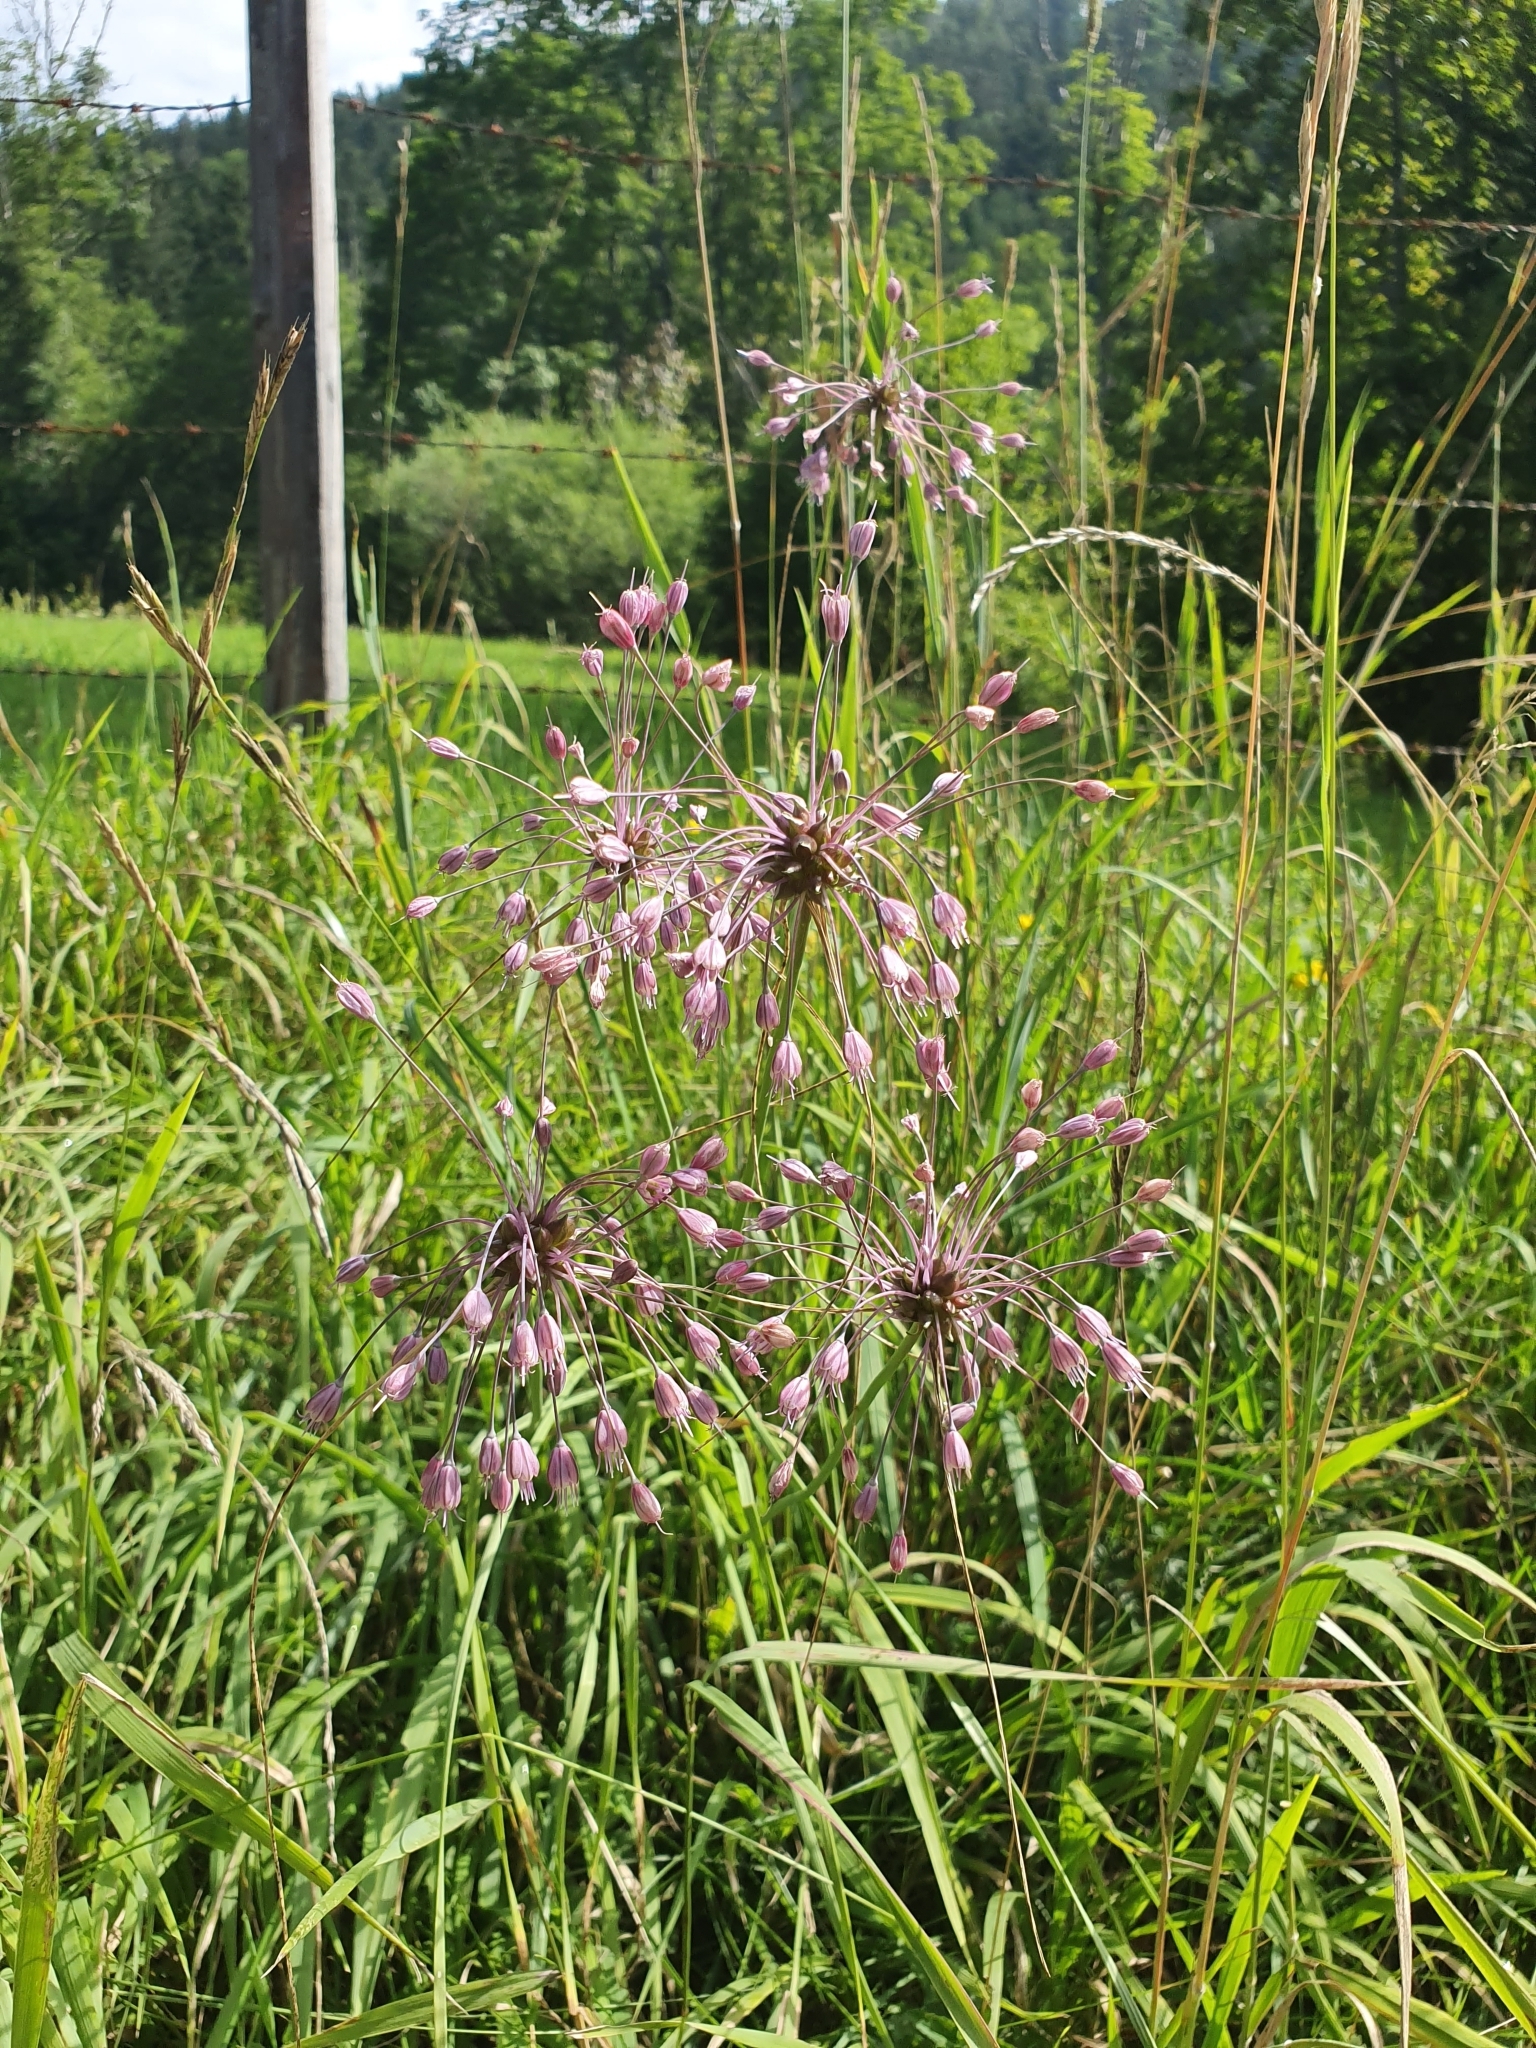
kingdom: Plantae
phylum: Tracheophyta
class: Liliopsida
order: Asparagales
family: Amaryllidaceae
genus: Allium
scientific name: Allium carinatum
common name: Keeled garlic
